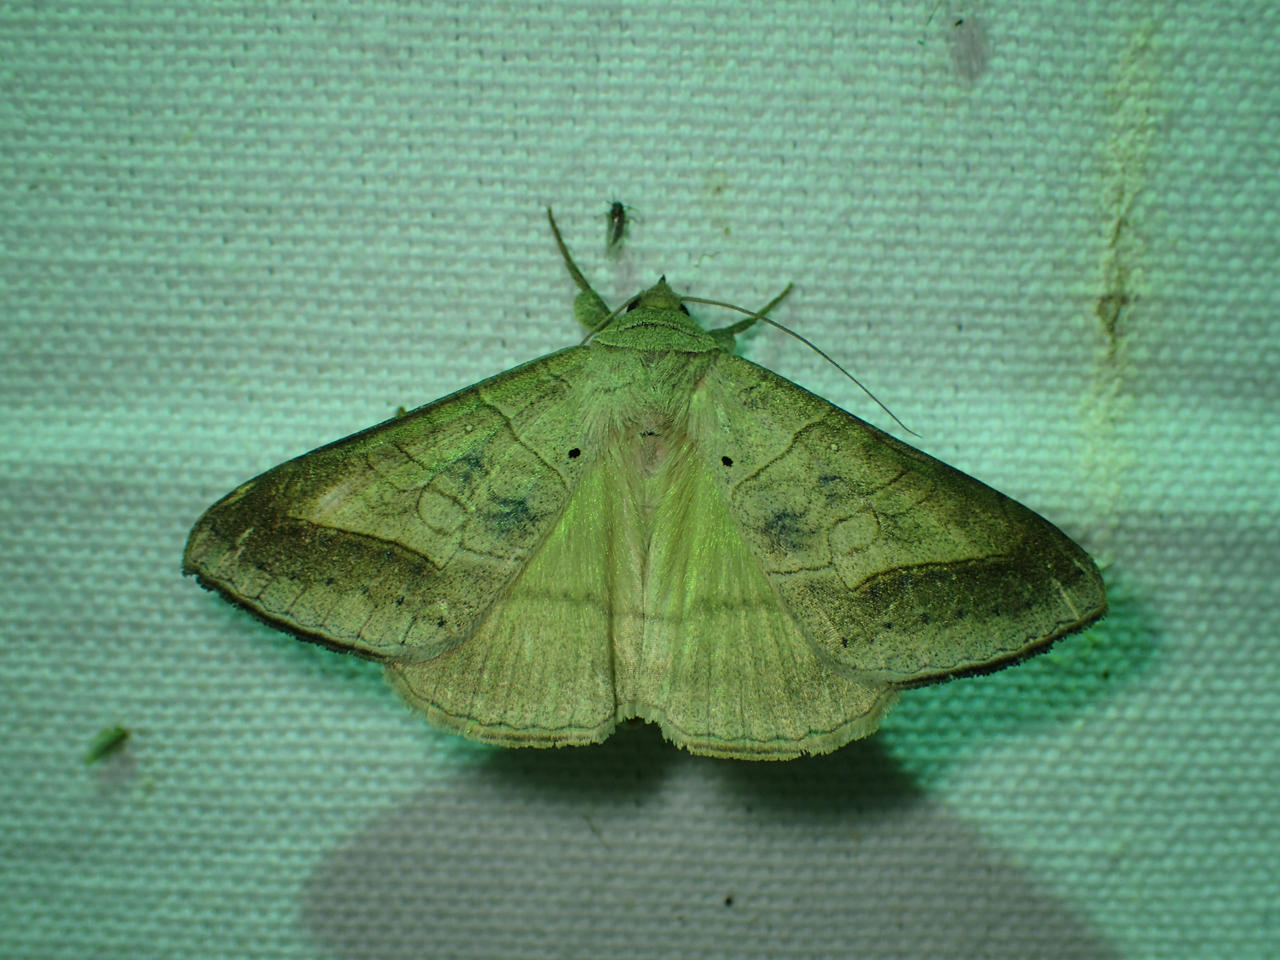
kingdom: Animalia
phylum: Arthropoda
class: Insecta
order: Lepidoptera
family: Erebidae
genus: Mocis
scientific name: Mocis marcida
